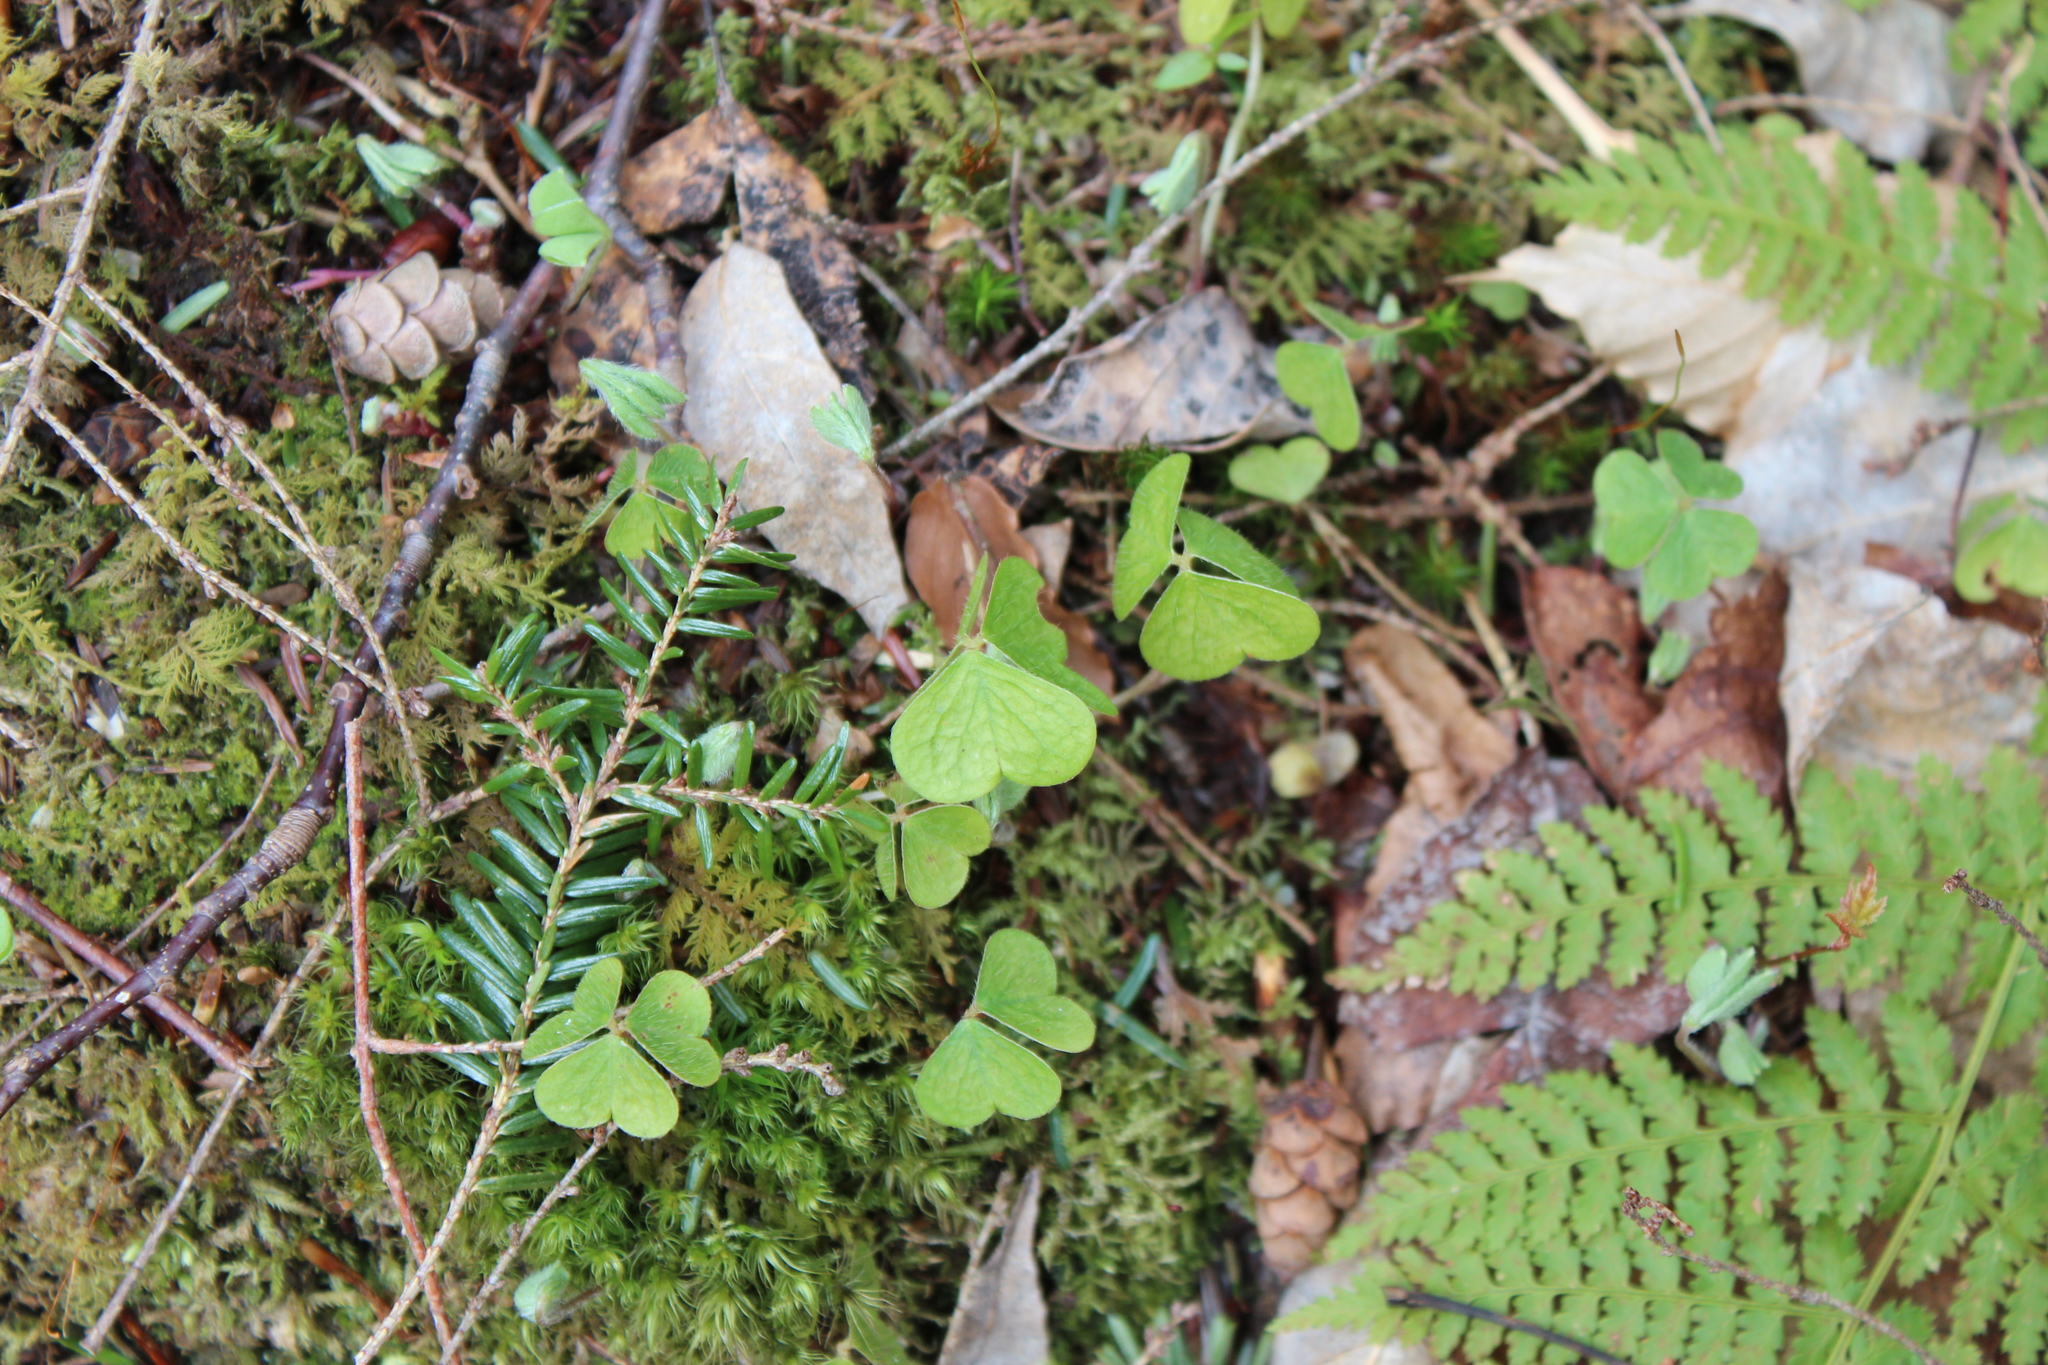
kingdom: Plantae
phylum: Tracheophyta
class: Magnoliopsida
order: Oxalidales
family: Oxalidaceae
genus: Oxalis
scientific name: Oxalis montana
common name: American wood-sorrel
